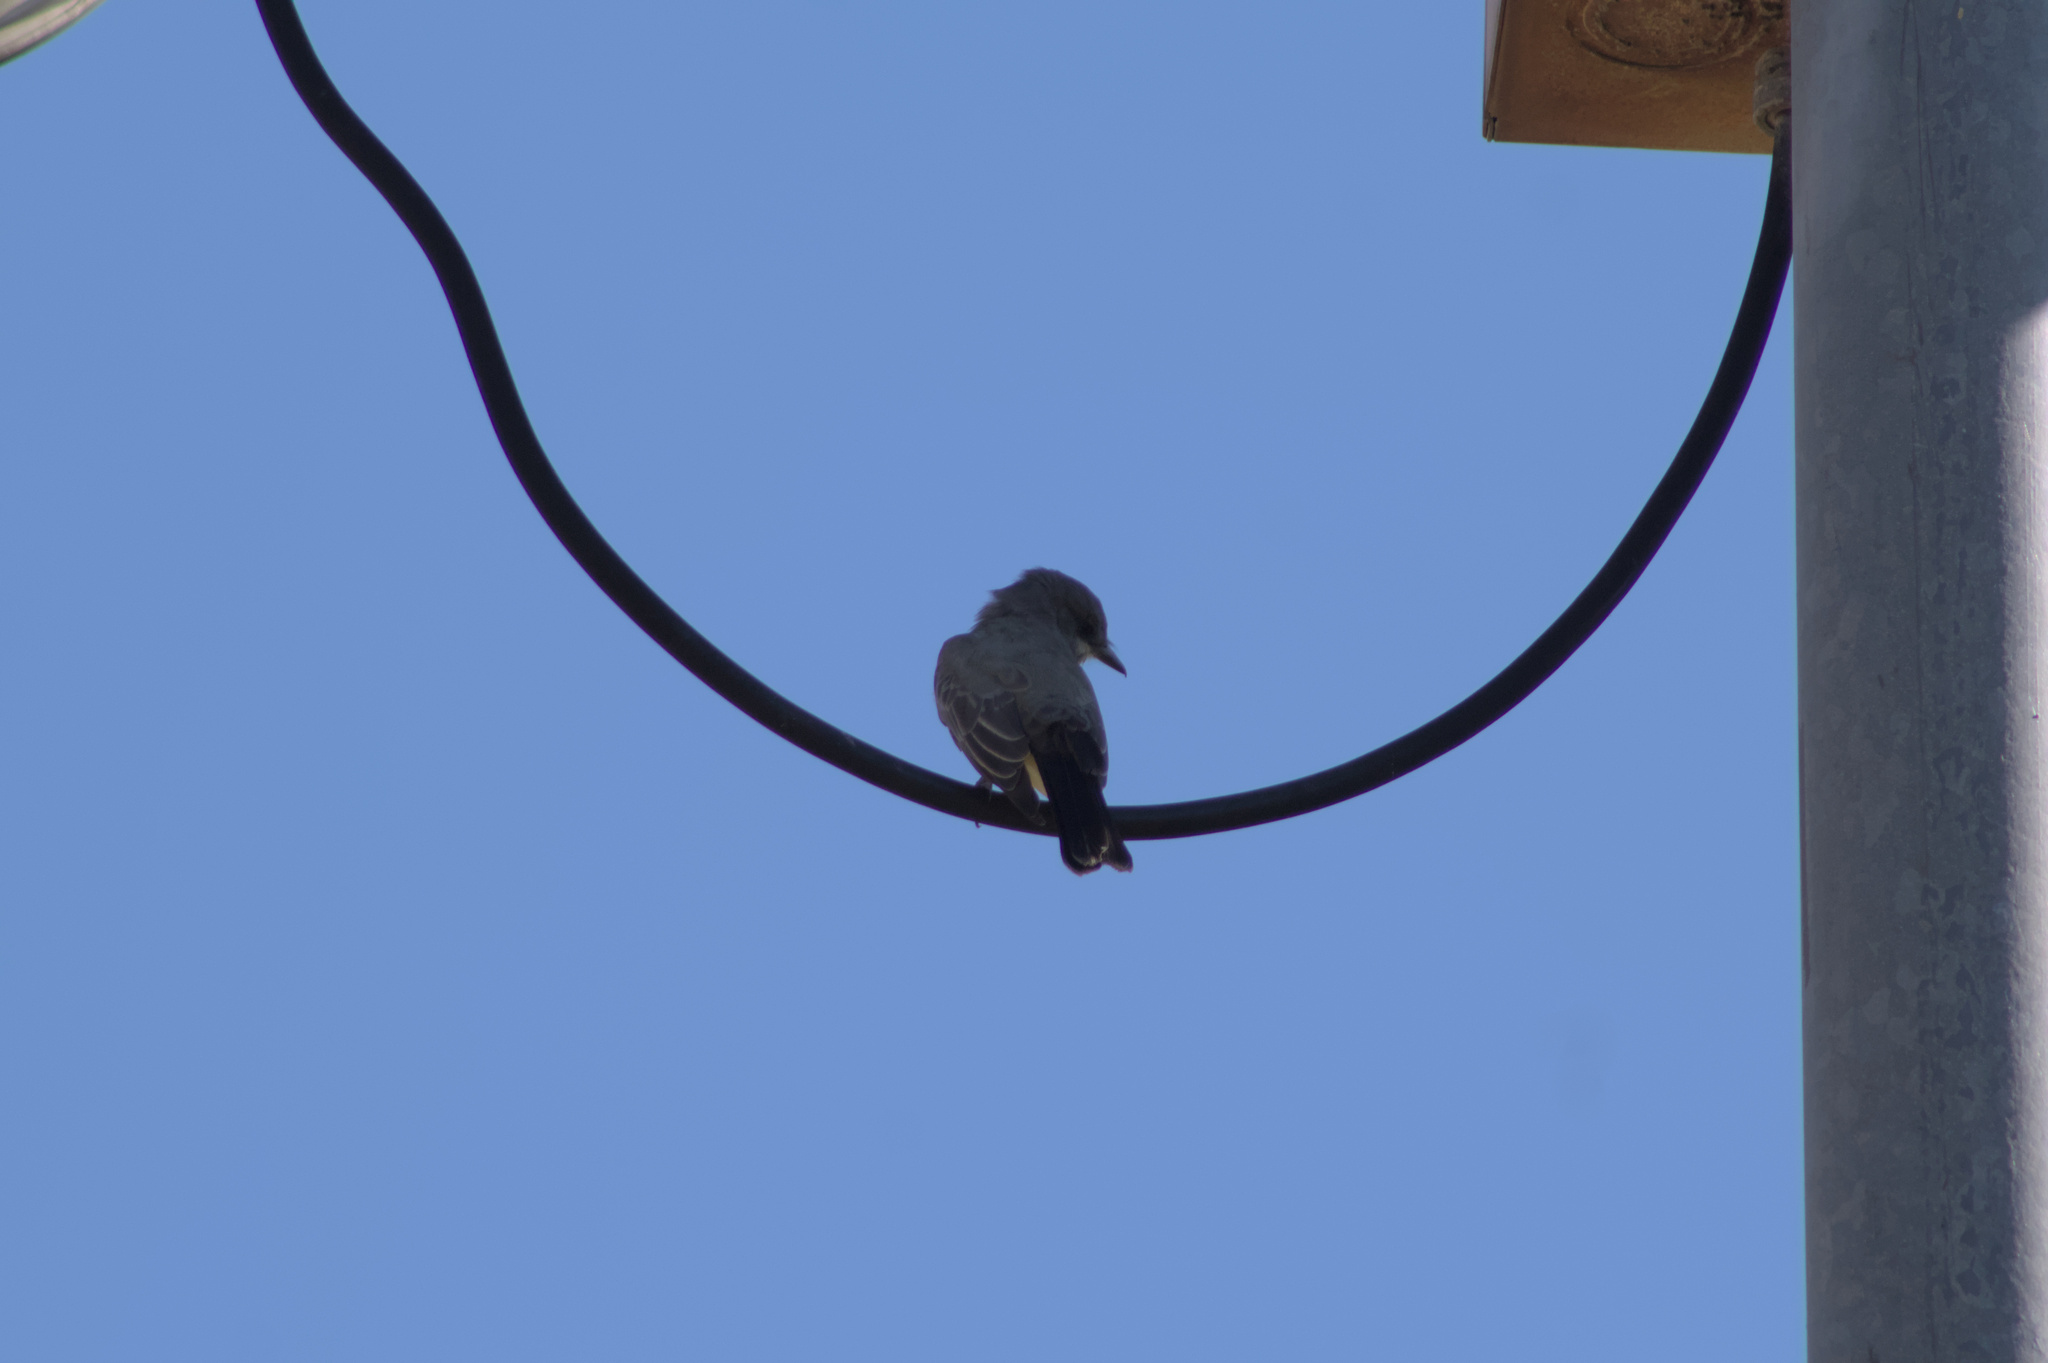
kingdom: Animalia
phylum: Chordata
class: Aves
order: Passeriformes
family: Tyrannidae
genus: Tyrannus
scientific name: Tyrannus vociferans
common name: Cassin's kingbird
